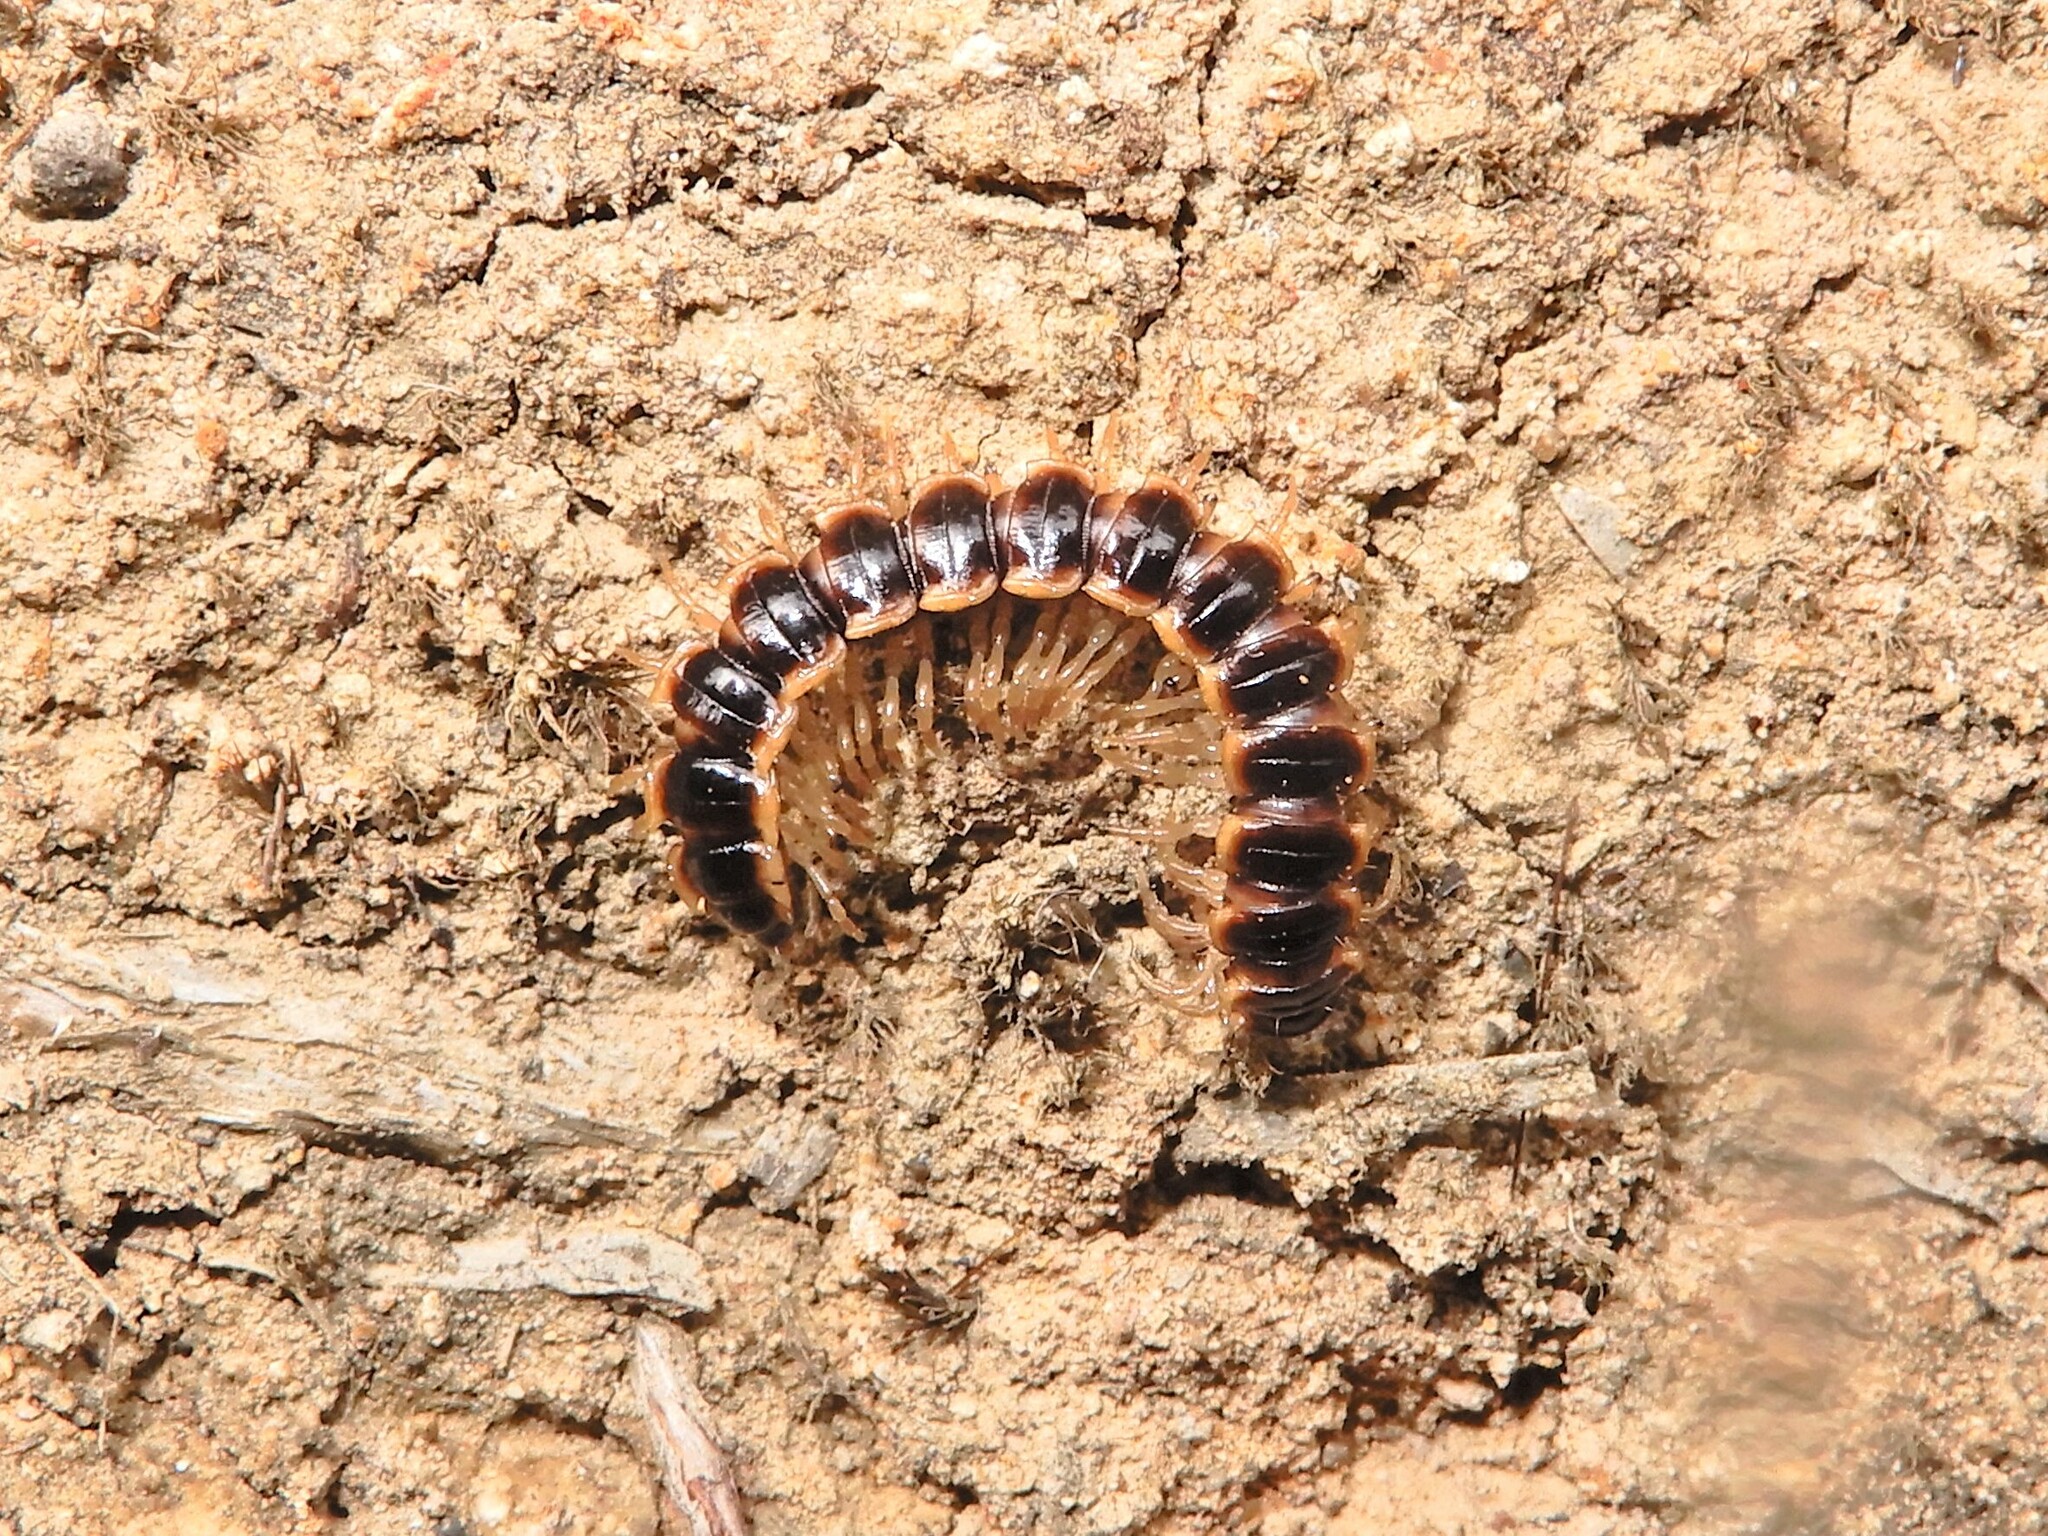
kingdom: Animalia
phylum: Arthropoda
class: Diplopoda
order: Polydesmida
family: Paradoxosomatidae
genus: Oxidus
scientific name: Oxidus gracilis
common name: Greenhouse millipede
